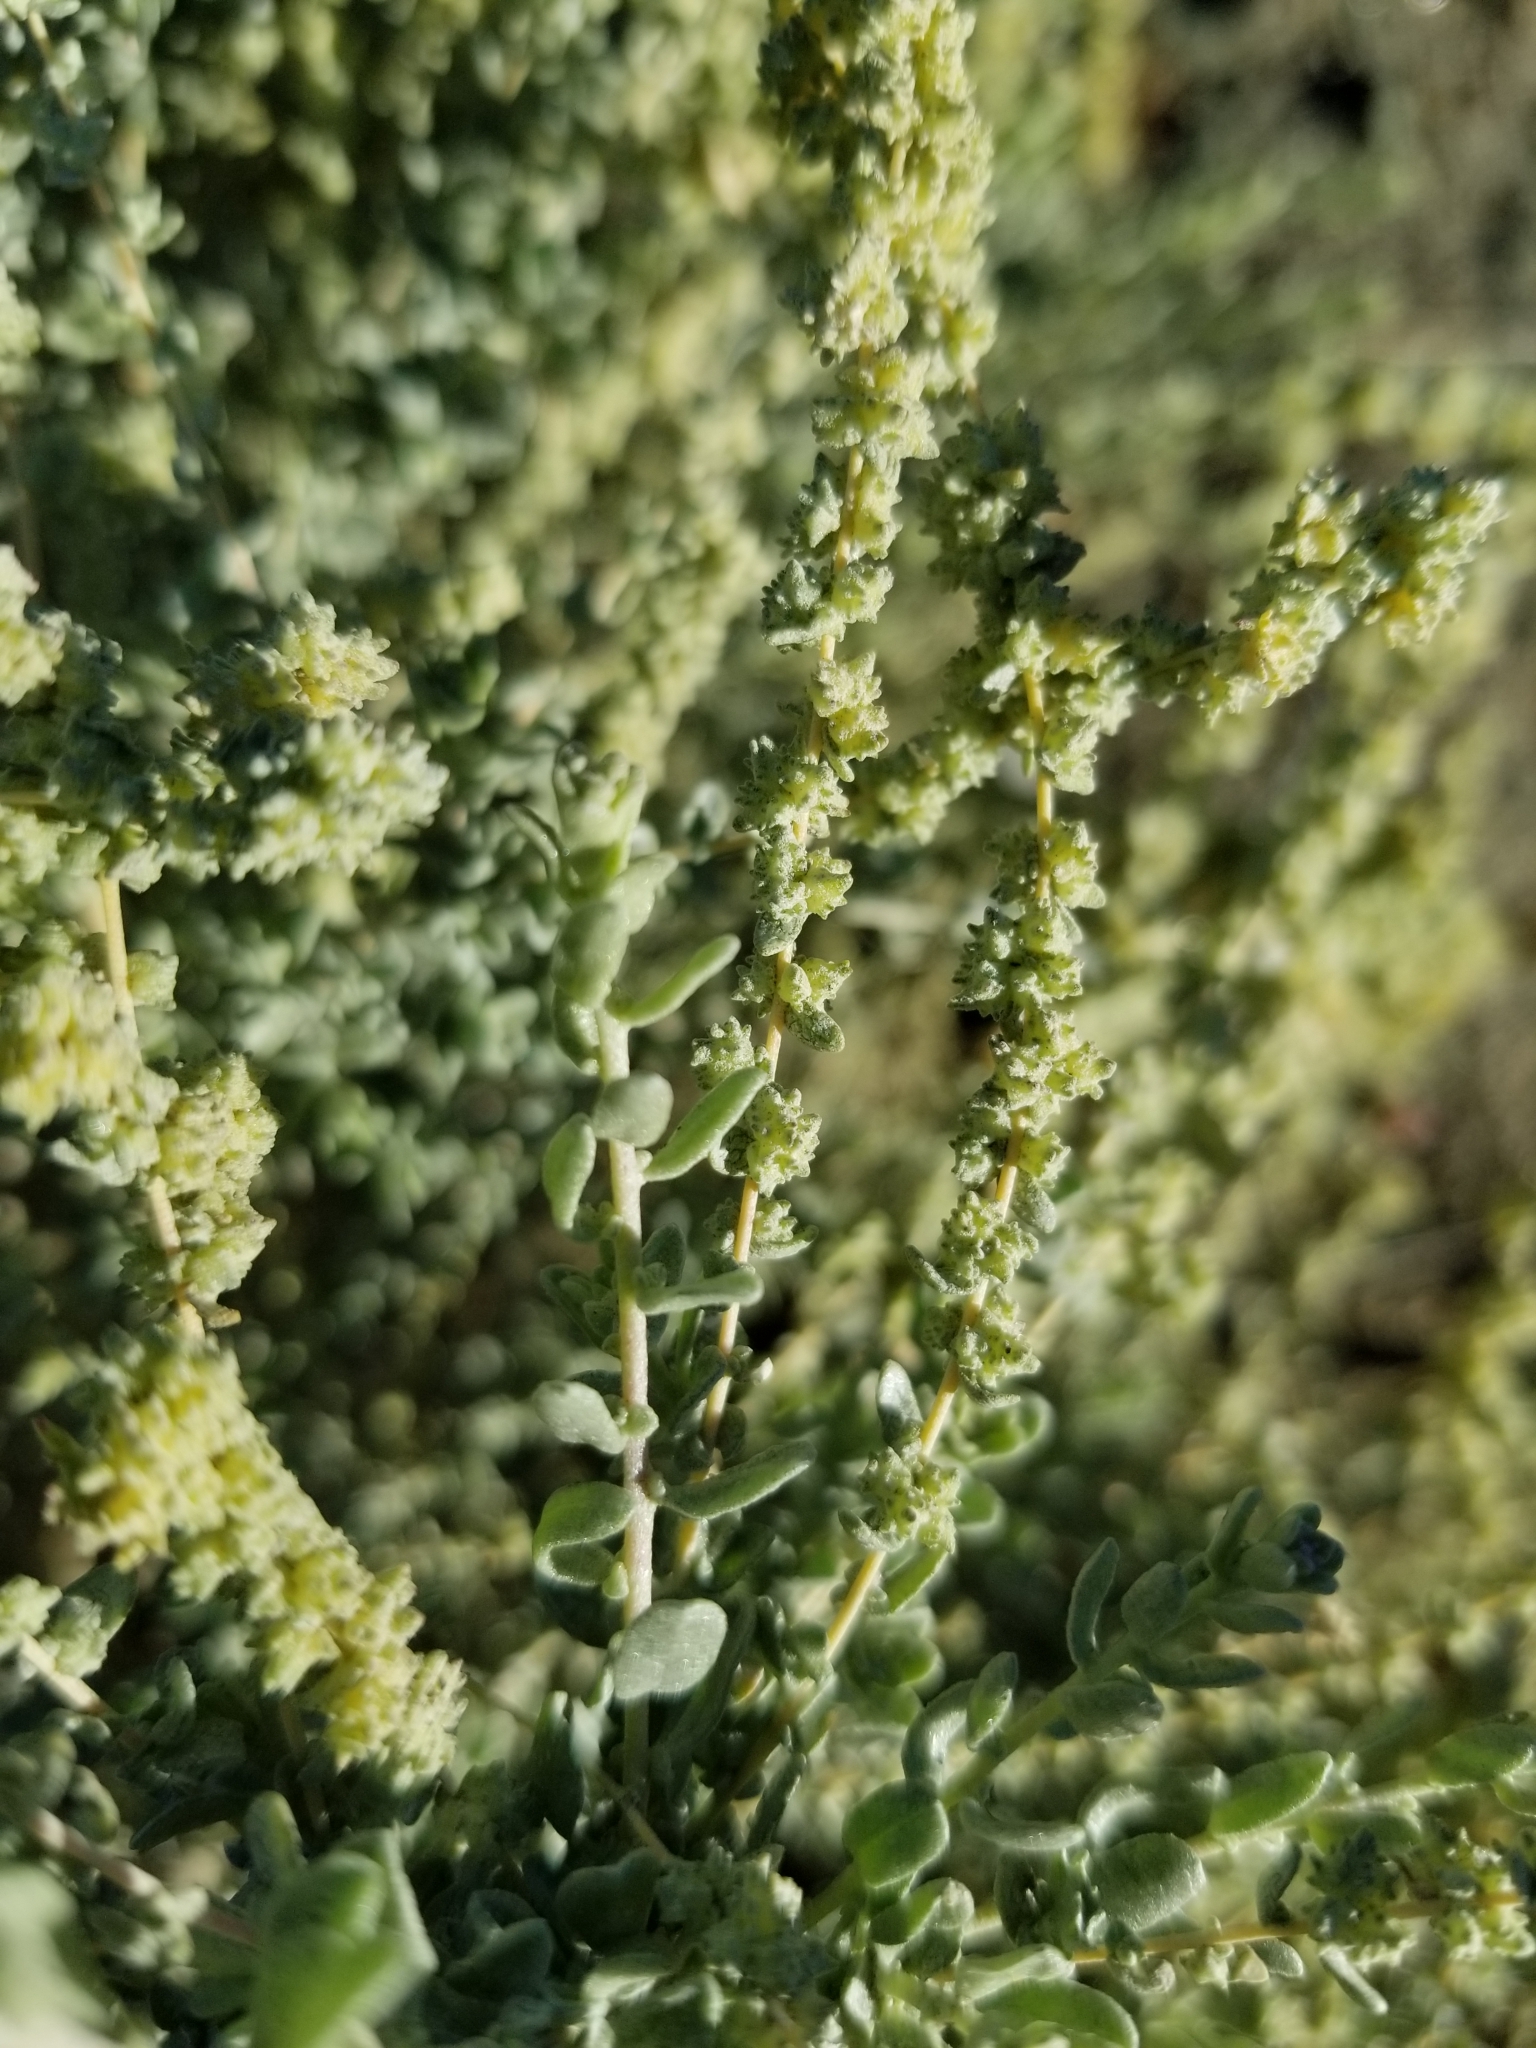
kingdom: Plantae
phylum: Tracheophyta
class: Magnoliopsida
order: Caryophyllales
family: Amaranthaceae
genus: Atriplex
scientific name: Atriplex polycarpa
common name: Desert saltbush
